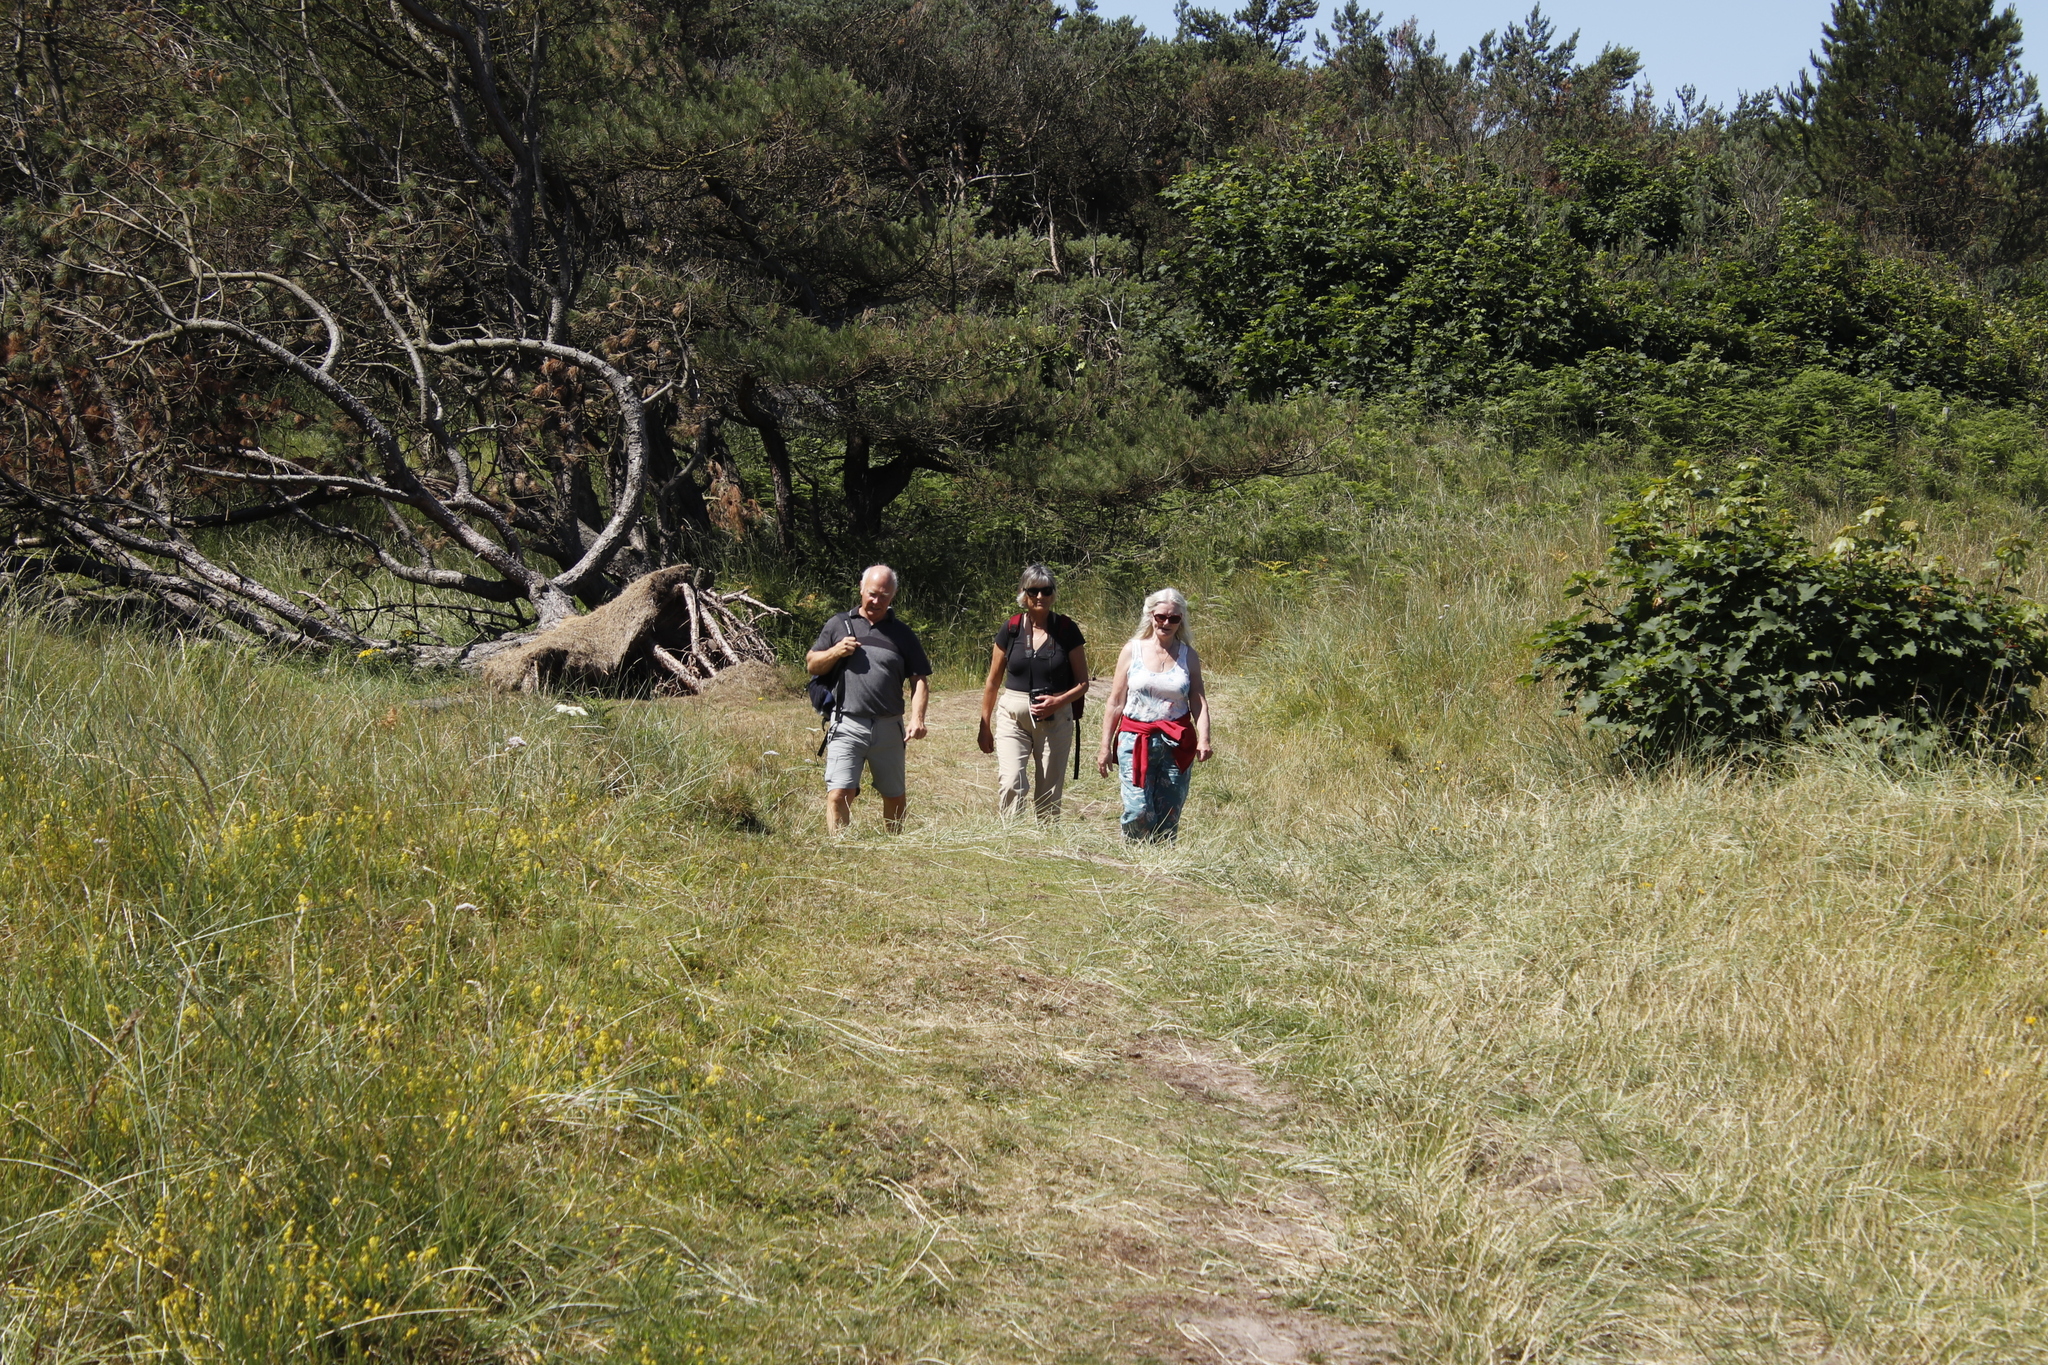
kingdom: Plantae
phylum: Tracheophyta
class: Magnoliopsida
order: Sapindales
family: Sapindaceae
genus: Acer
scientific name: Acer pseudoplatanus
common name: Sycamore
